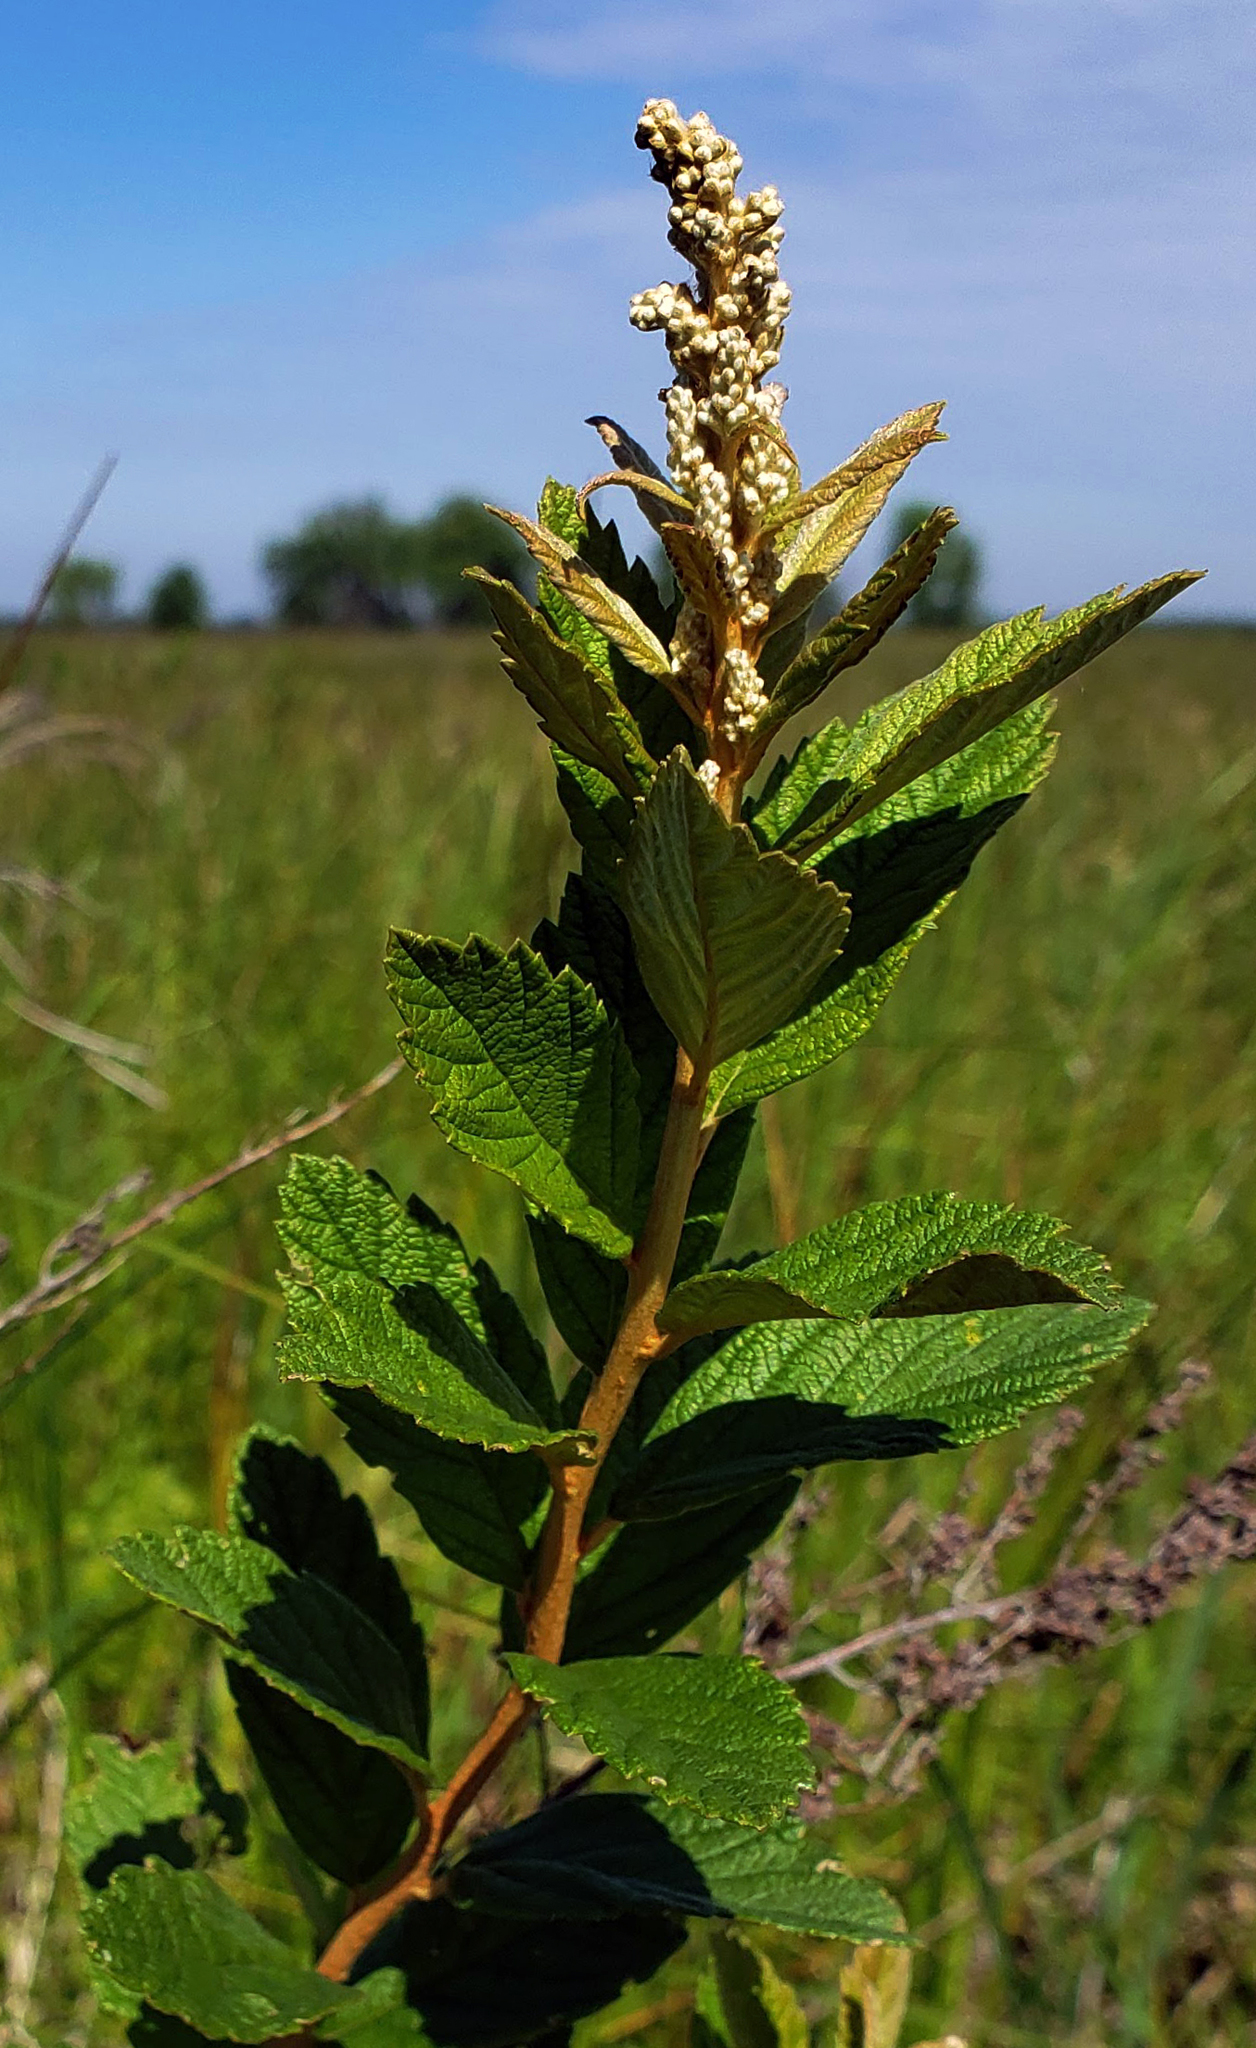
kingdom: Plantae
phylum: Tracheophyta
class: Magnoliopsida
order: Rosales
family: Rosaceae
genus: Spiraea
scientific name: Spiraea tomentosa
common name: Hardhack
